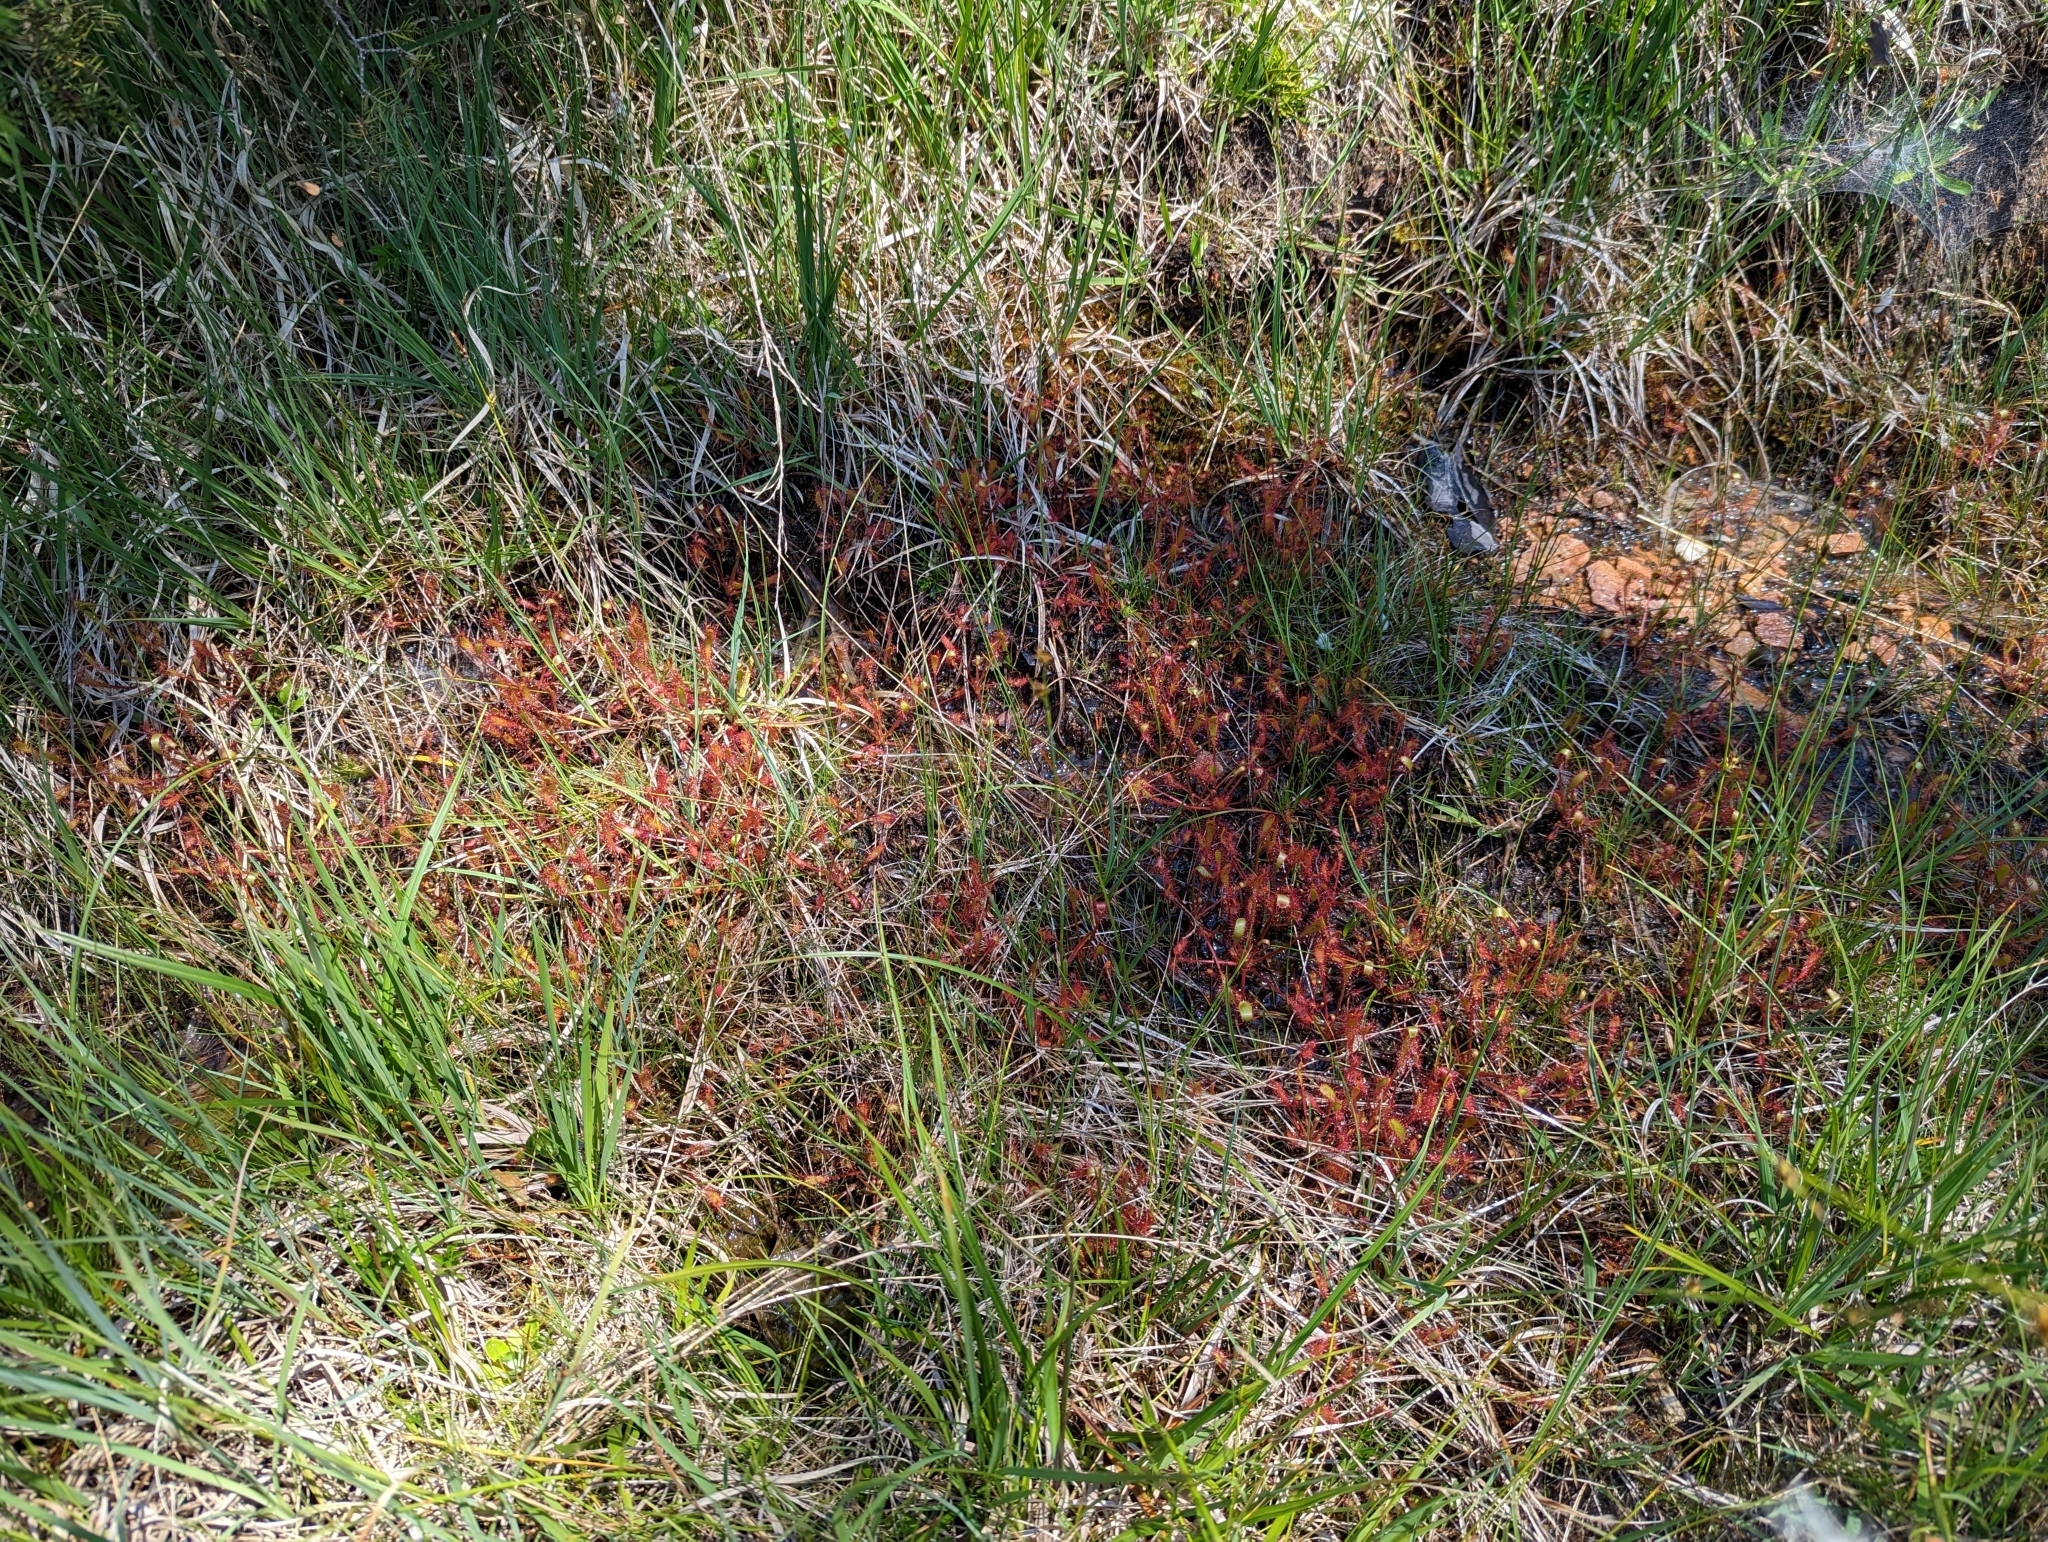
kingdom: Plantae
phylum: Tracheophyta
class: Magnoliopsida
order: Caryophyllales
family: Droseraceae
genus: Drosera
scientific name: Drosera anglica
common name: Great sundew
